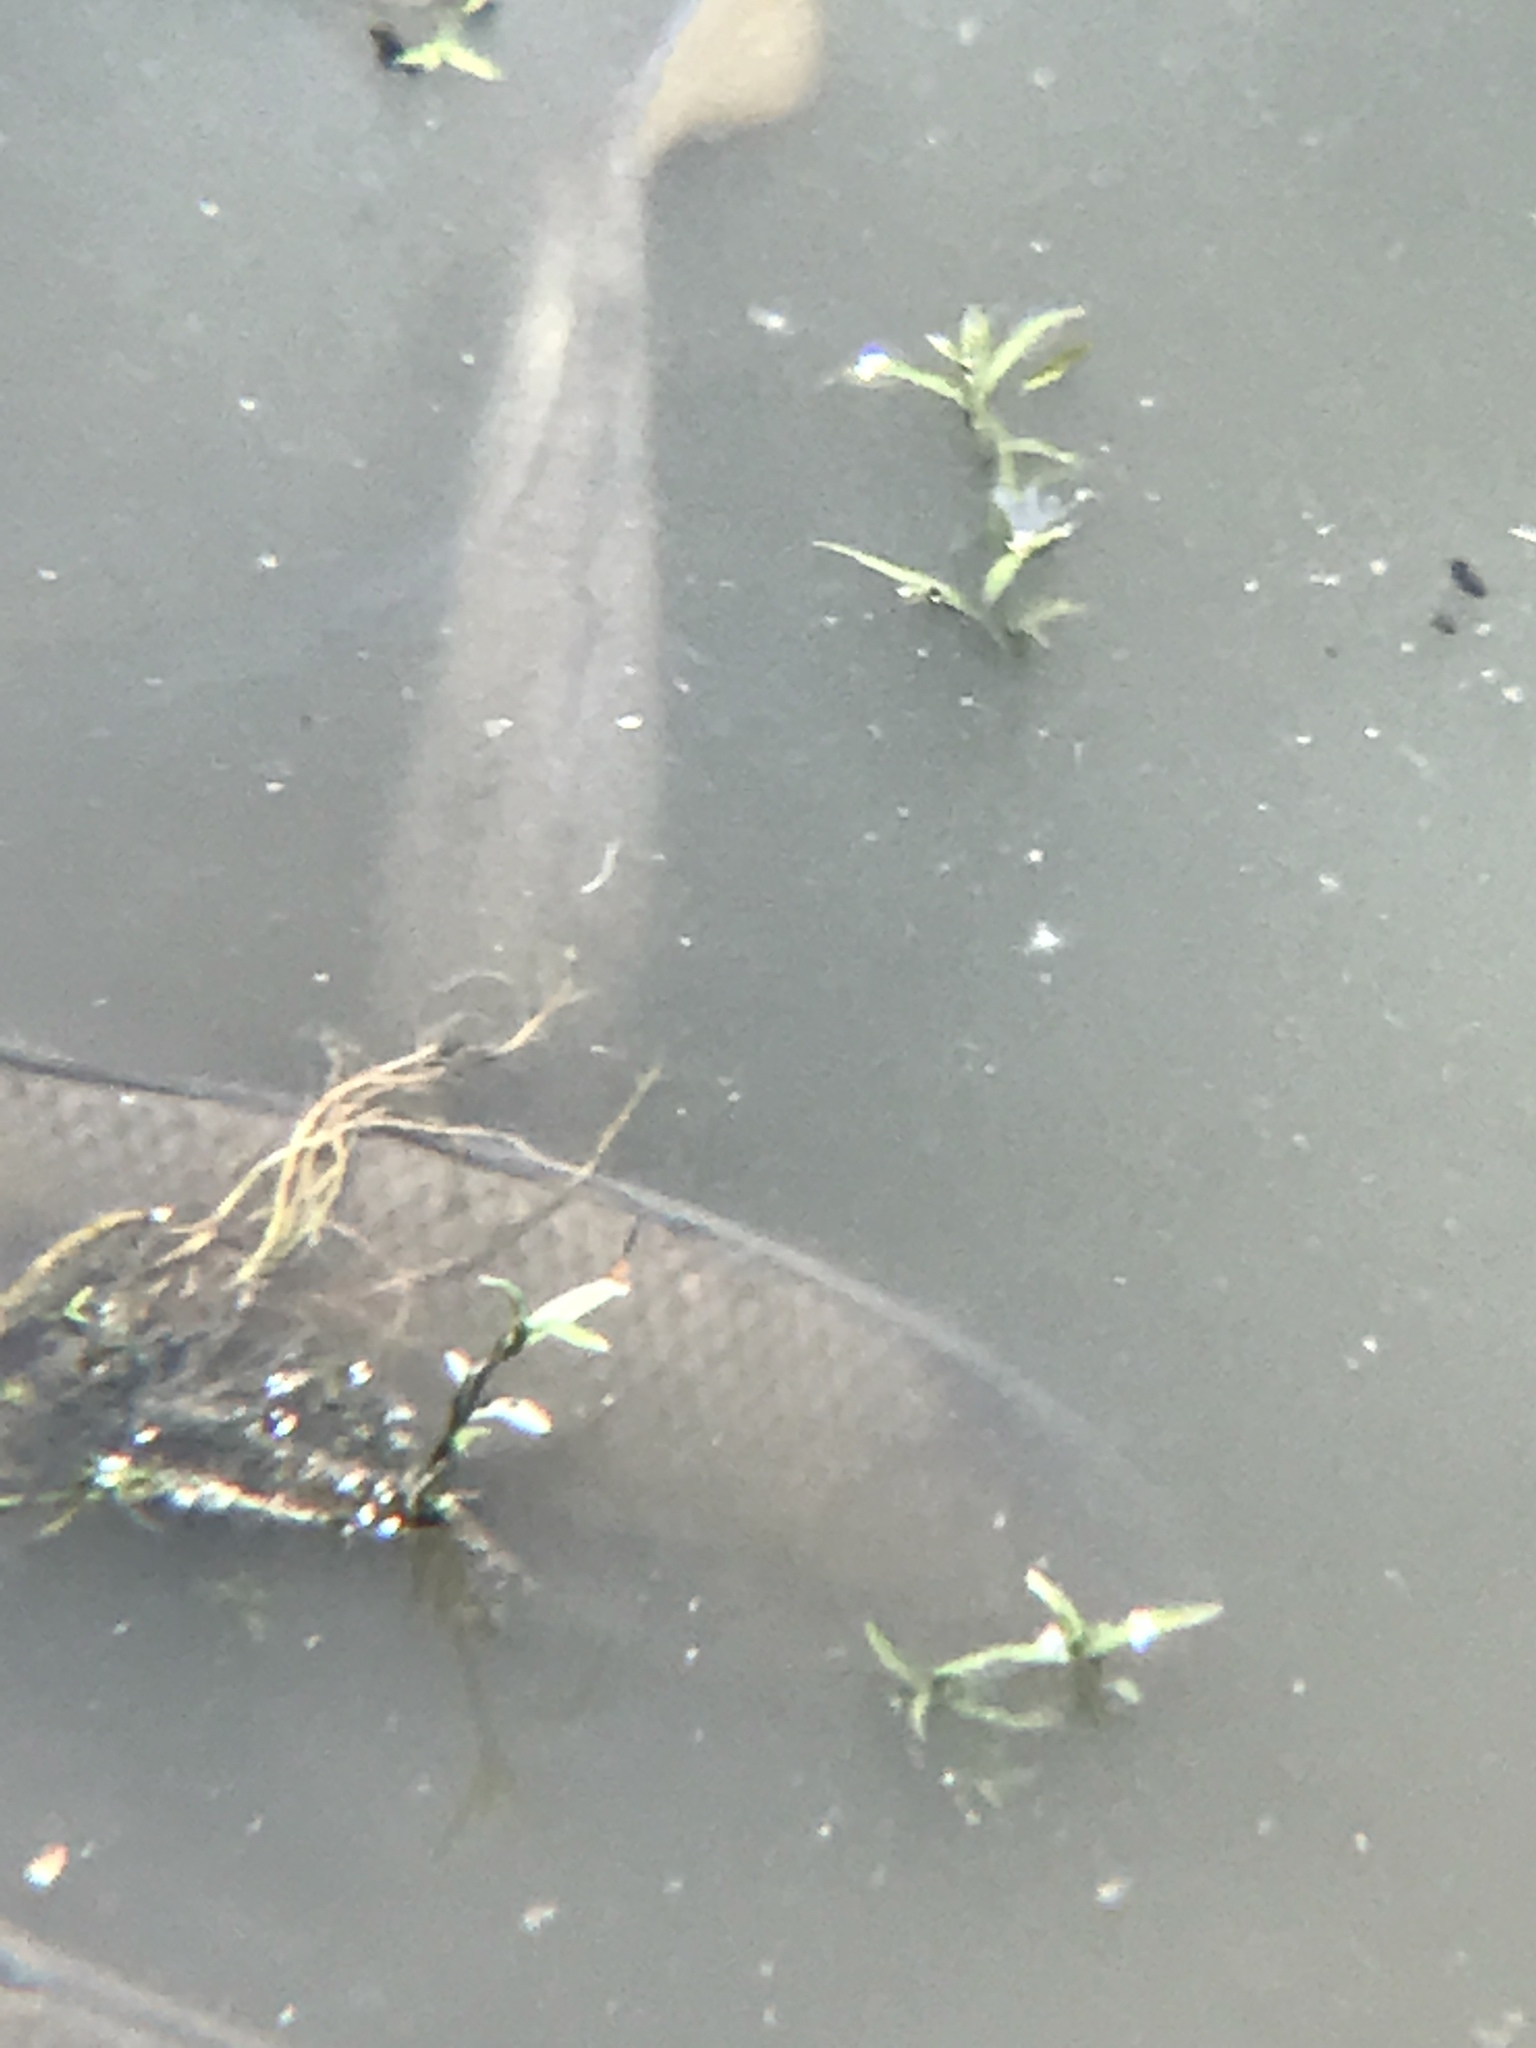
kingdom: Animalia
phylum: Chordata
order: Cypriniformes
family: Cyprinidae
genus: Cyprinus
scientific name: Cyprinus carpio
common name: Common carp
